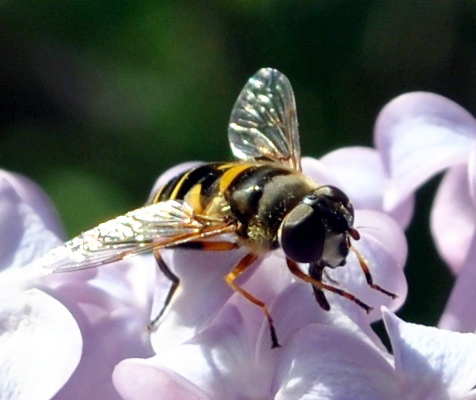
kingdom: Animalia
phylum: Arthropoda
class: Insecta
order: Diptera
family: Syrphidae
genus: Eristalis
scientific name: Eristalis transversa
